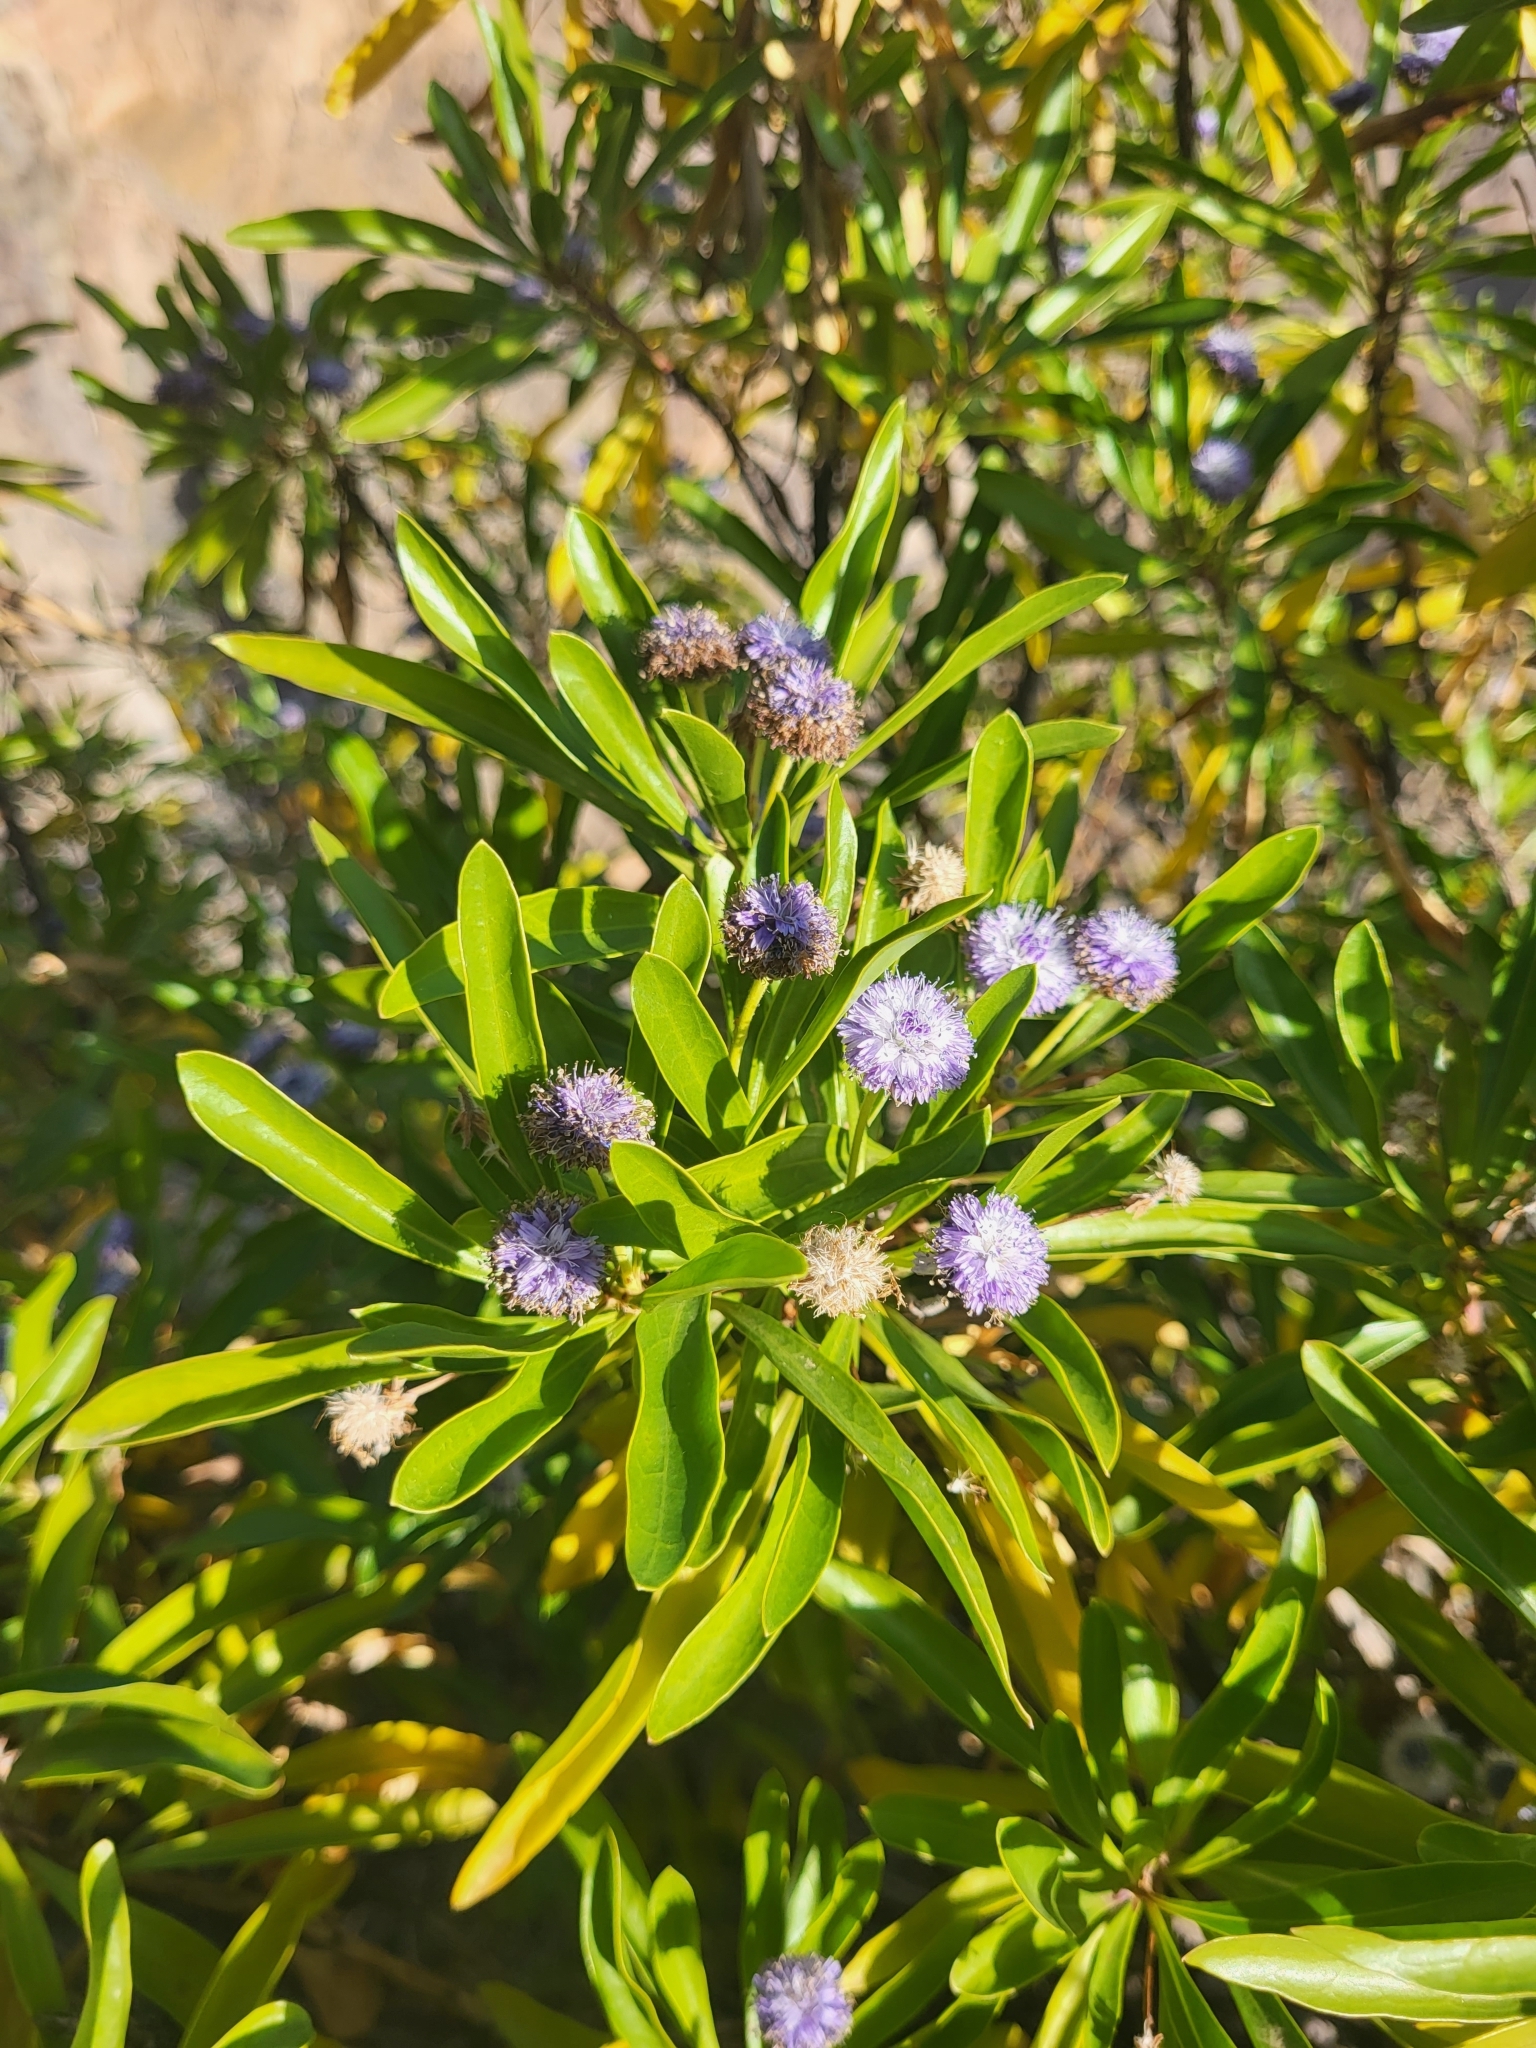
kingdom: Plantae
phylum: Tracheophyta
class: Magnoliopsida
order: Lamiales
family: Plantaginaceae
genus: Globularia
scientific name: Globularia amygdalifolia
